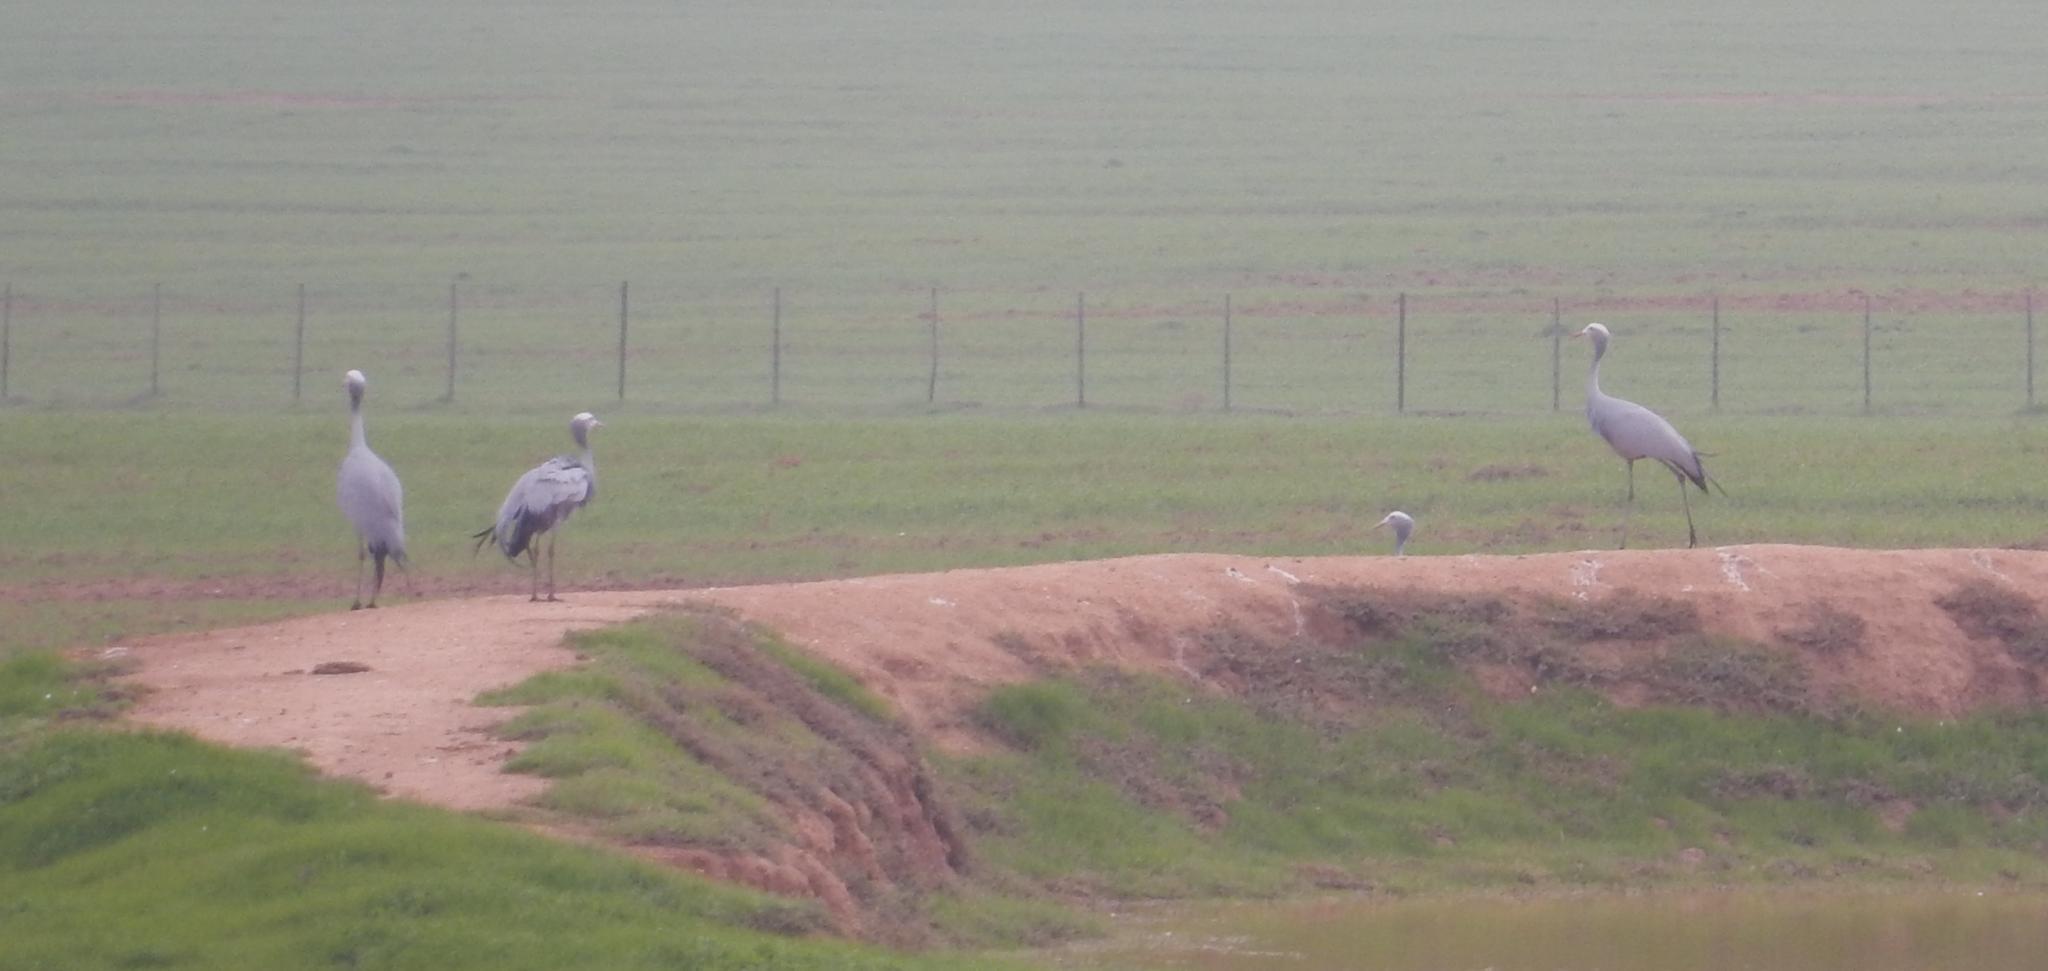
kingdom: Animalia
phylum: Chordata
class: Aves
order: Gruiformes
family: Gruidae
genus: Anthropoides
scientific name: Anthropoides paradiseus
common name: Blue crane
